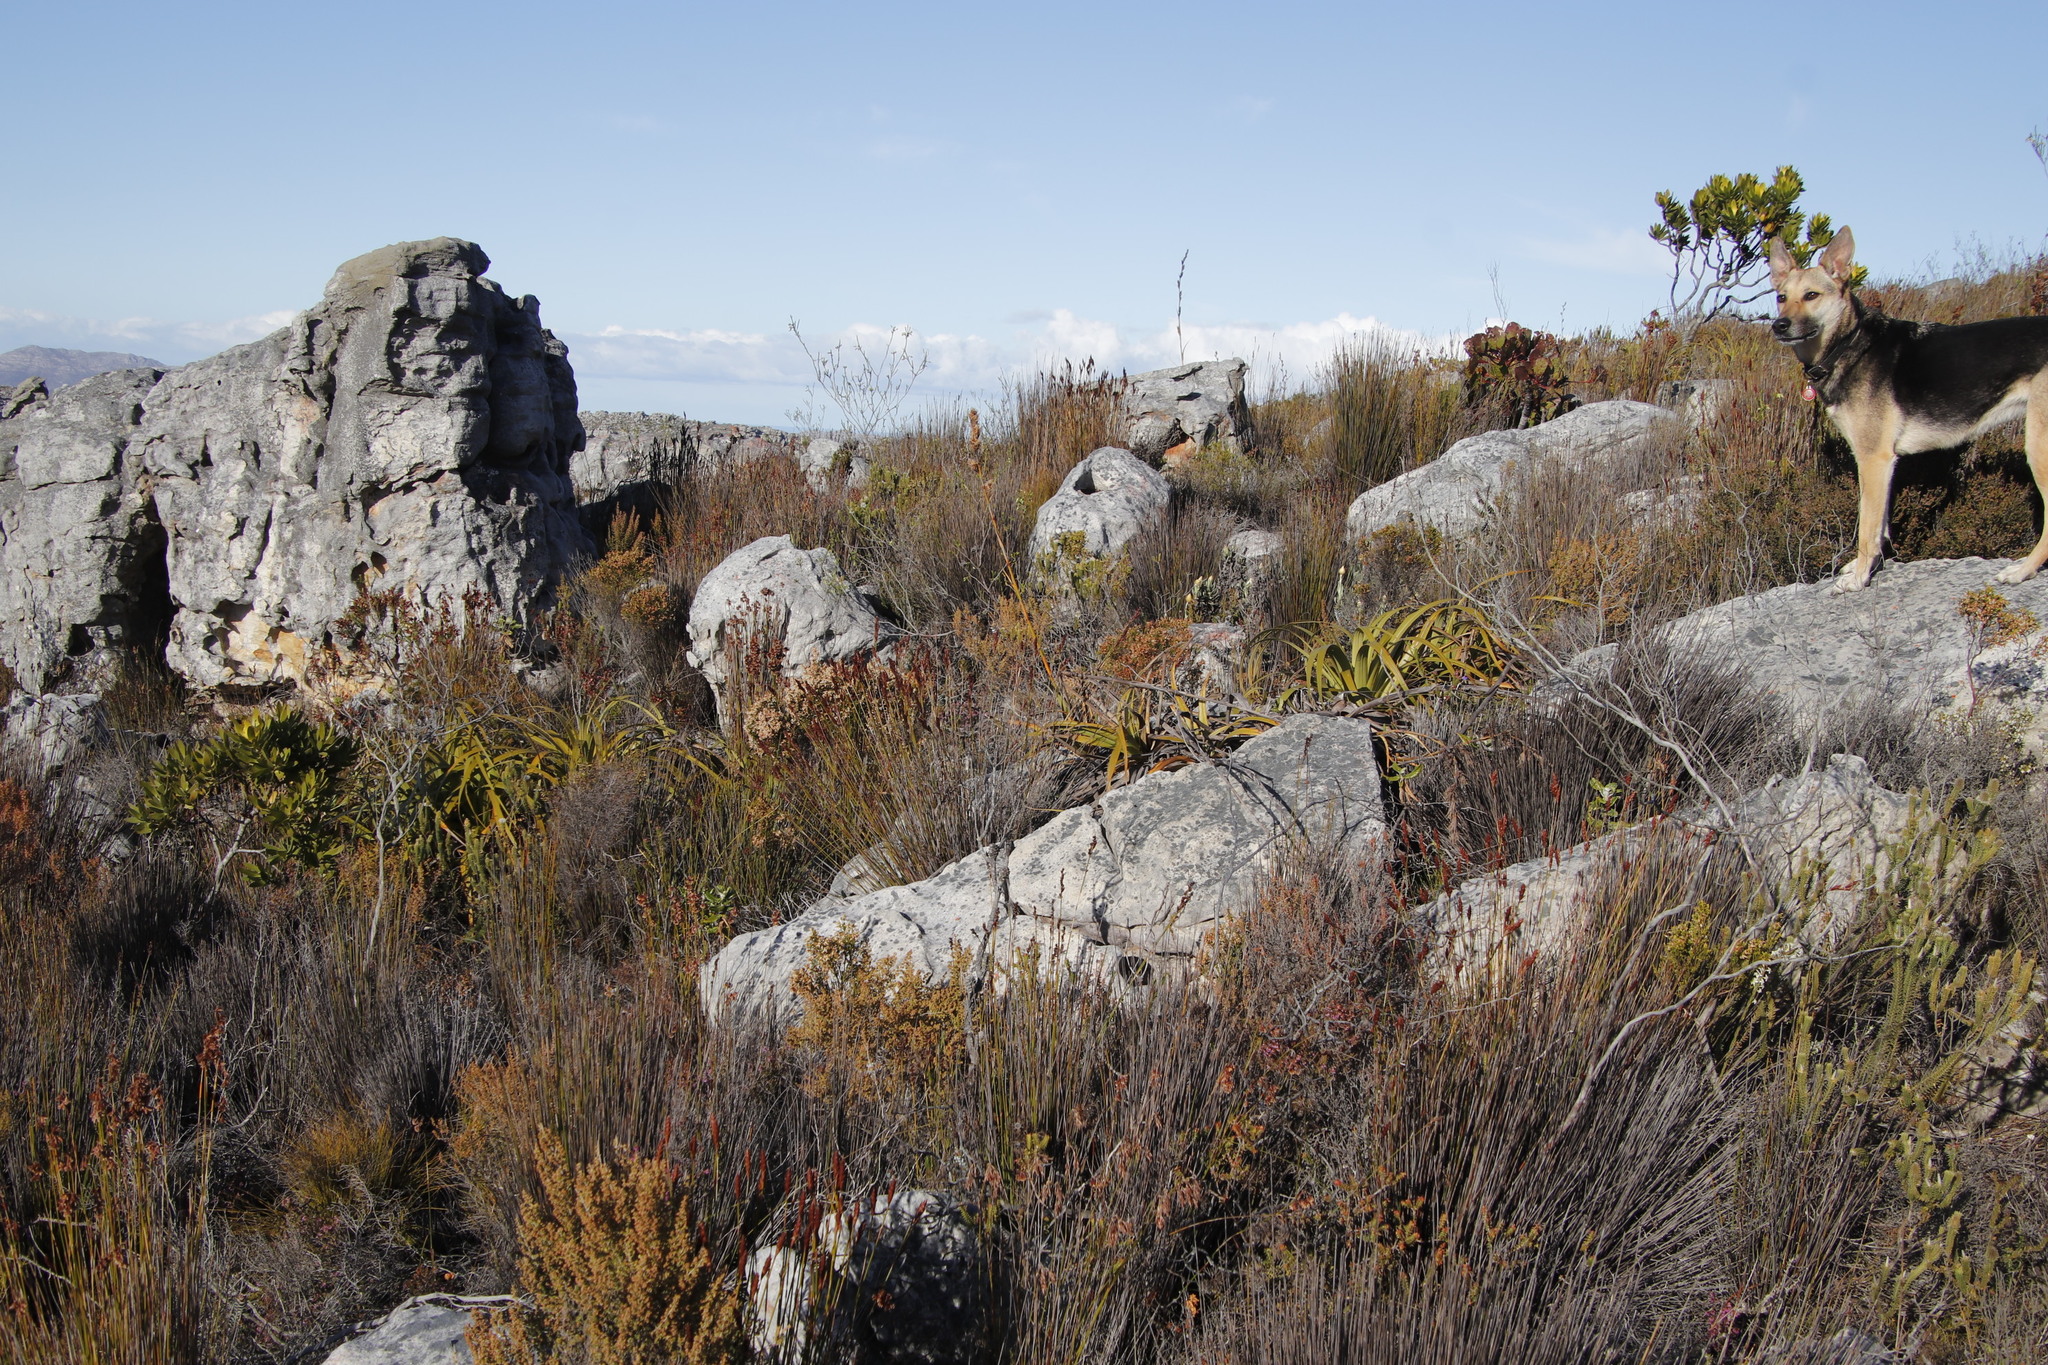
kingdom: Plantae
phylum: Tracheophyta
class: Liliopsida
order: Poales
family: Cyperaceae
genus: Tetraria
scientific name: Tetraria thermalis
